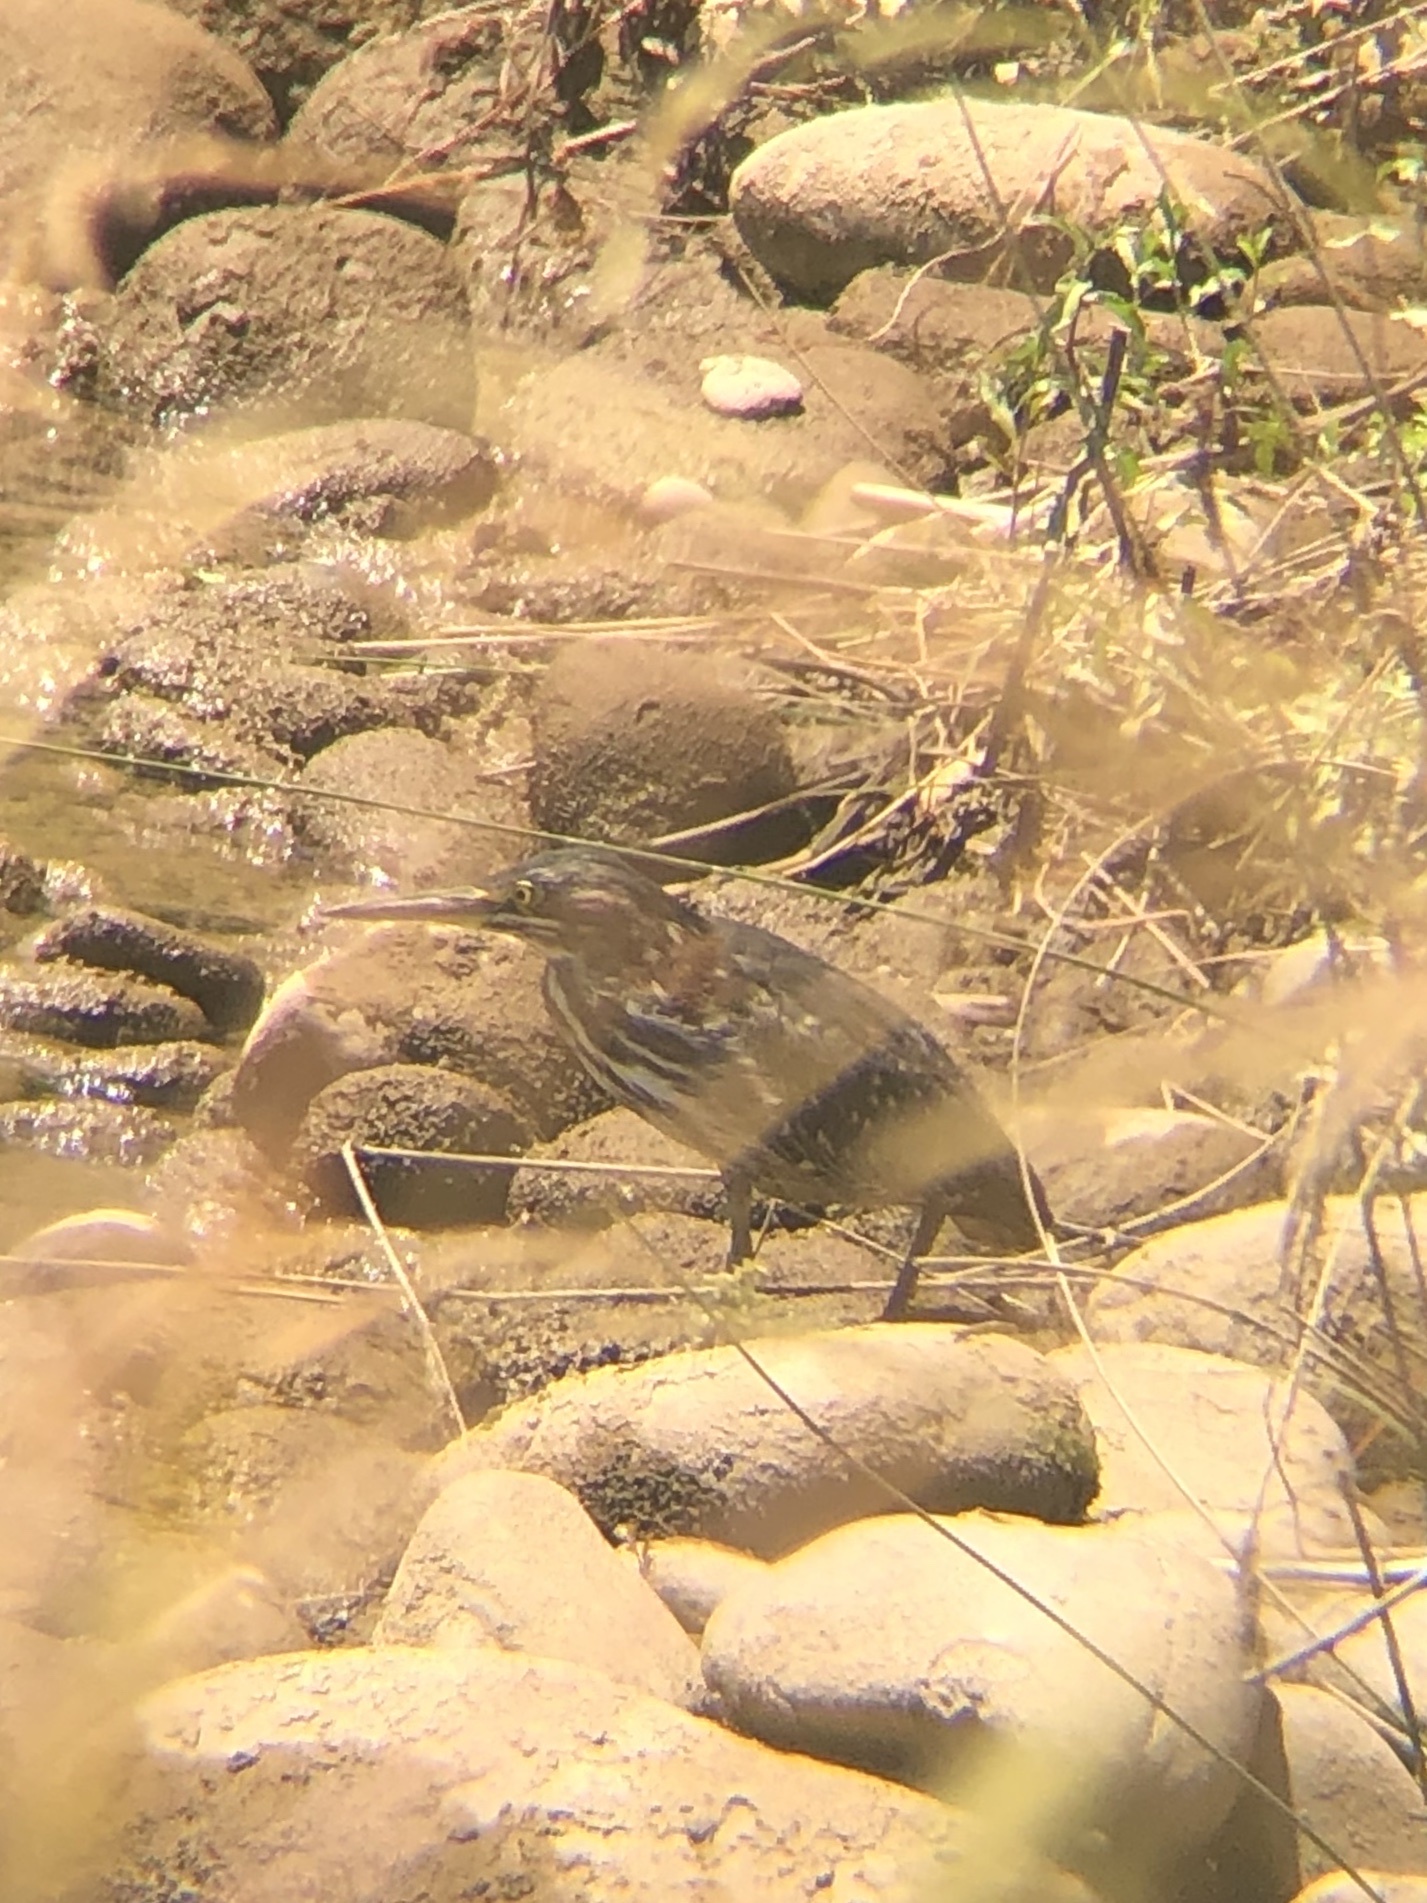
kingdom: Animalia
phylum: Chordata
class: Aves
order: Pelecaniformes
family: Ardeidae
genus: Butorides
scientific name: Butorides virescens
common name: Green heron
